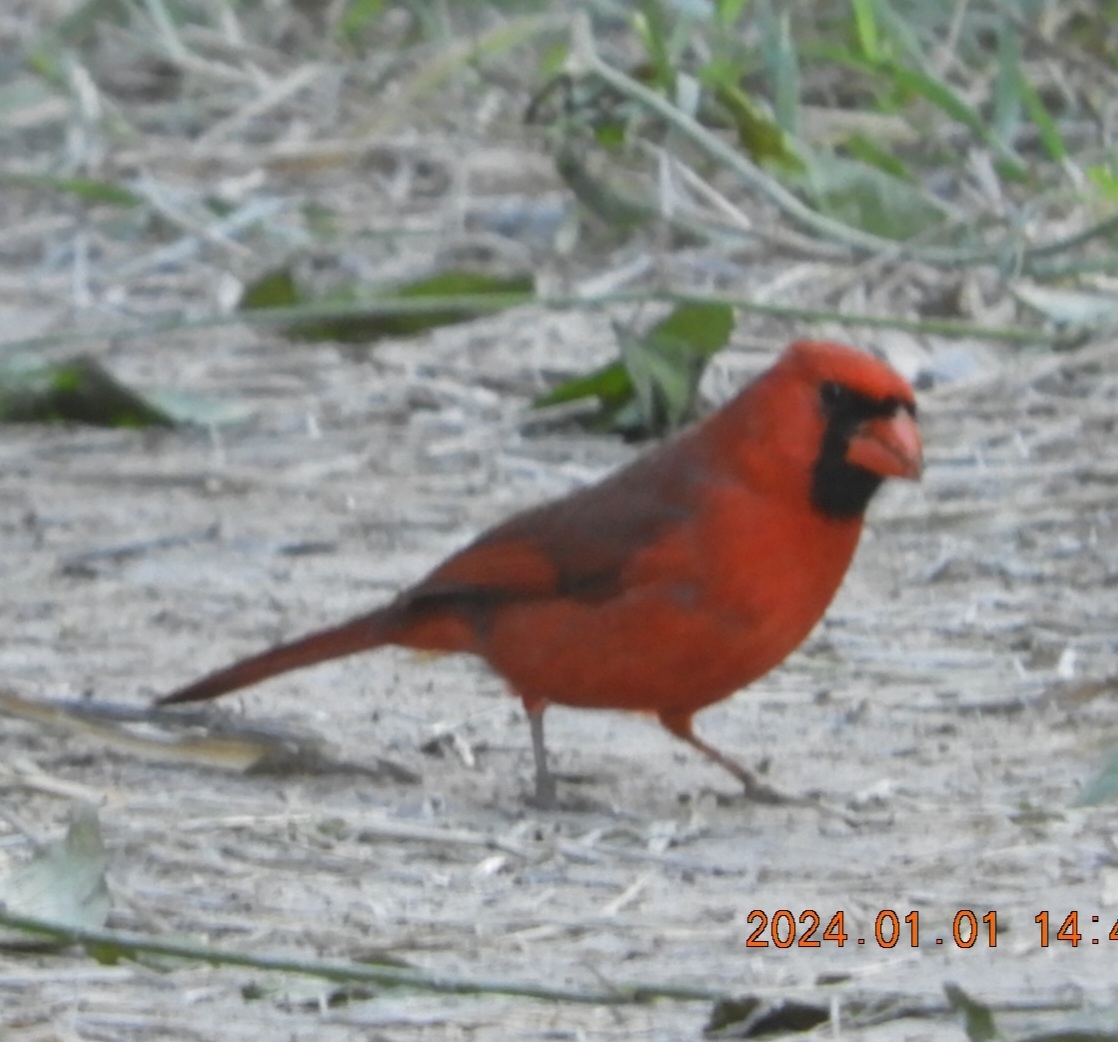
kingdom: Animalia
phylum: Chordata
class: Aves
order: Passeriformes
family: Cardinalidae
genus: Cardinalis
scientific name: Cardinalis cardinalis
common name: Northern cardinal
